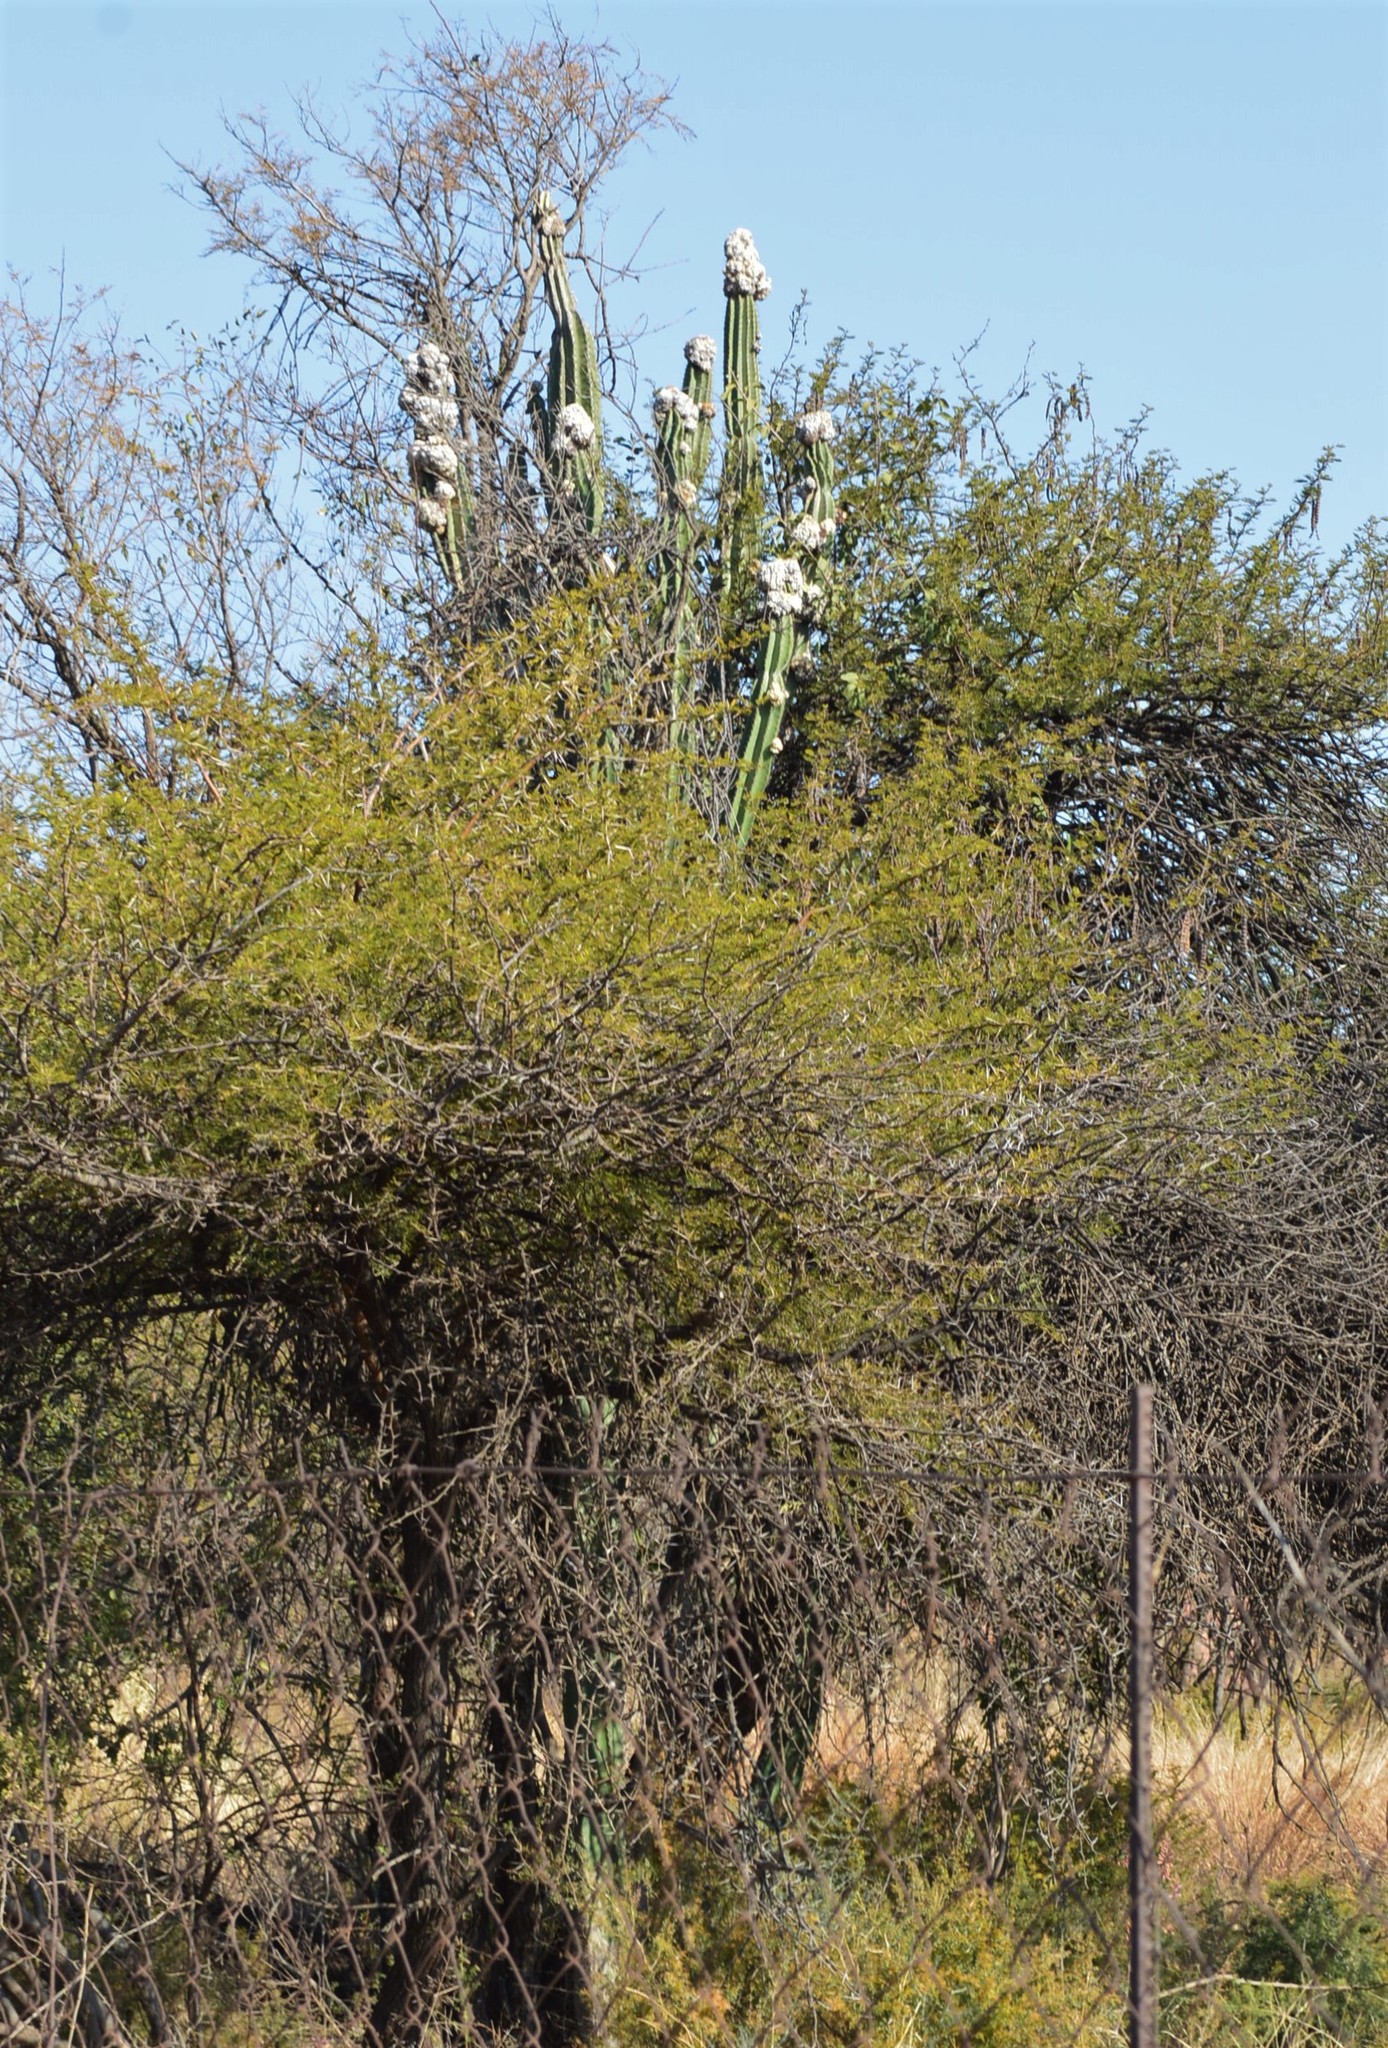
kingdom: Plantae
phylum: Tracheophyta
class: Magnoliopsida
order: Caryophyllales
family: Cactaceae
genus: Cereus
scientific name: Cereus jamacaru
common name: Queen-of-the-night
